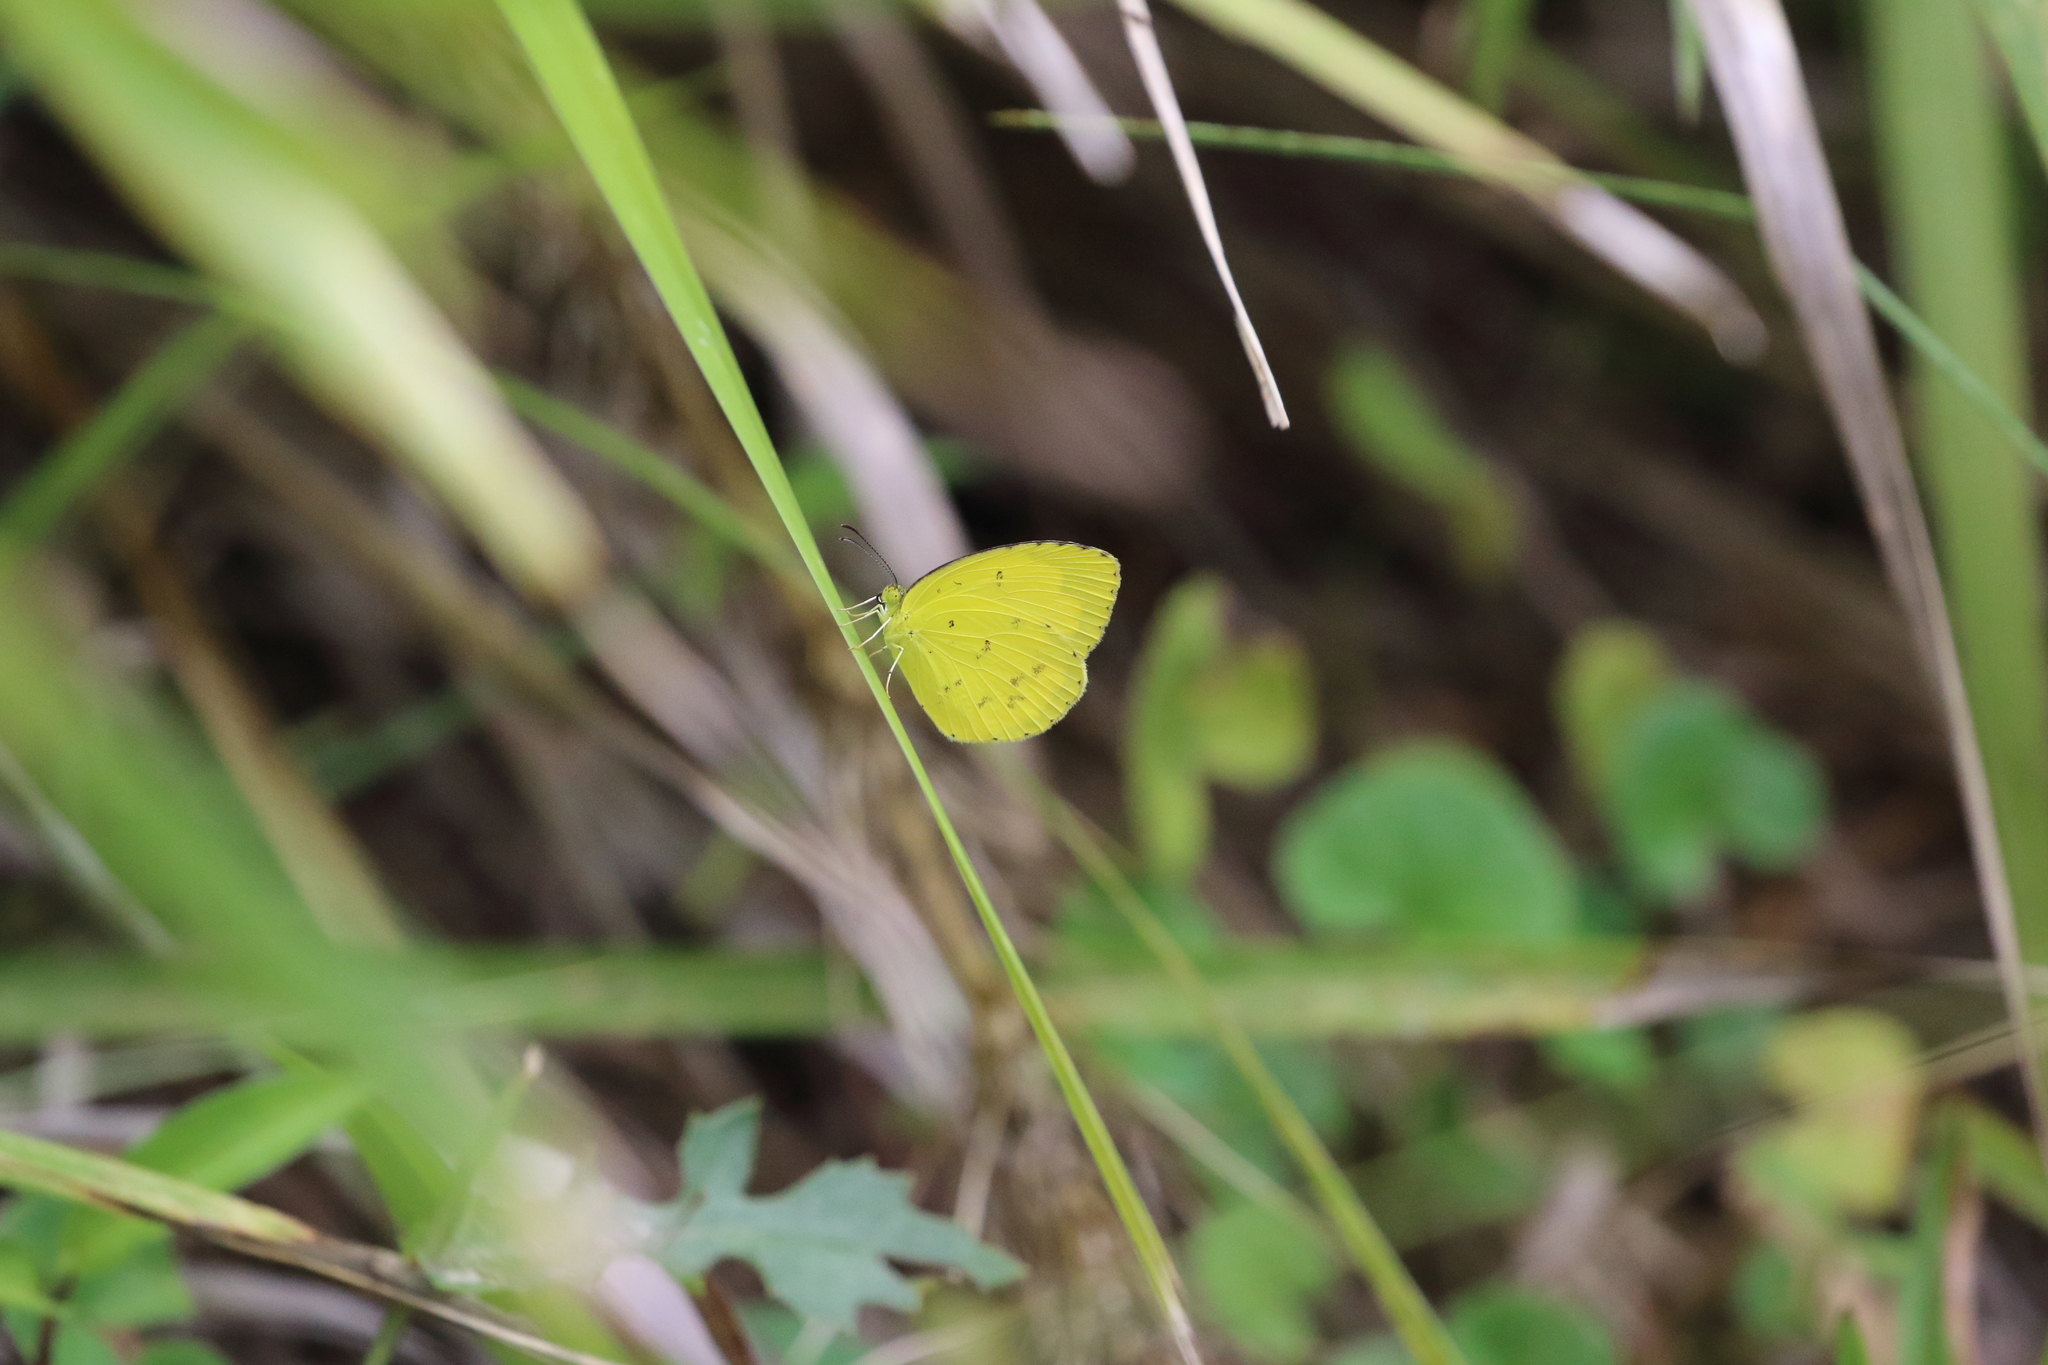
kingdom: Animalia
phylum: Arthropoda
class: Insecta
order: Lepidoptera
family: Pieridae
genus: Eurema
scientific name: Eurema hecabe
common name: Pale grass yellow
